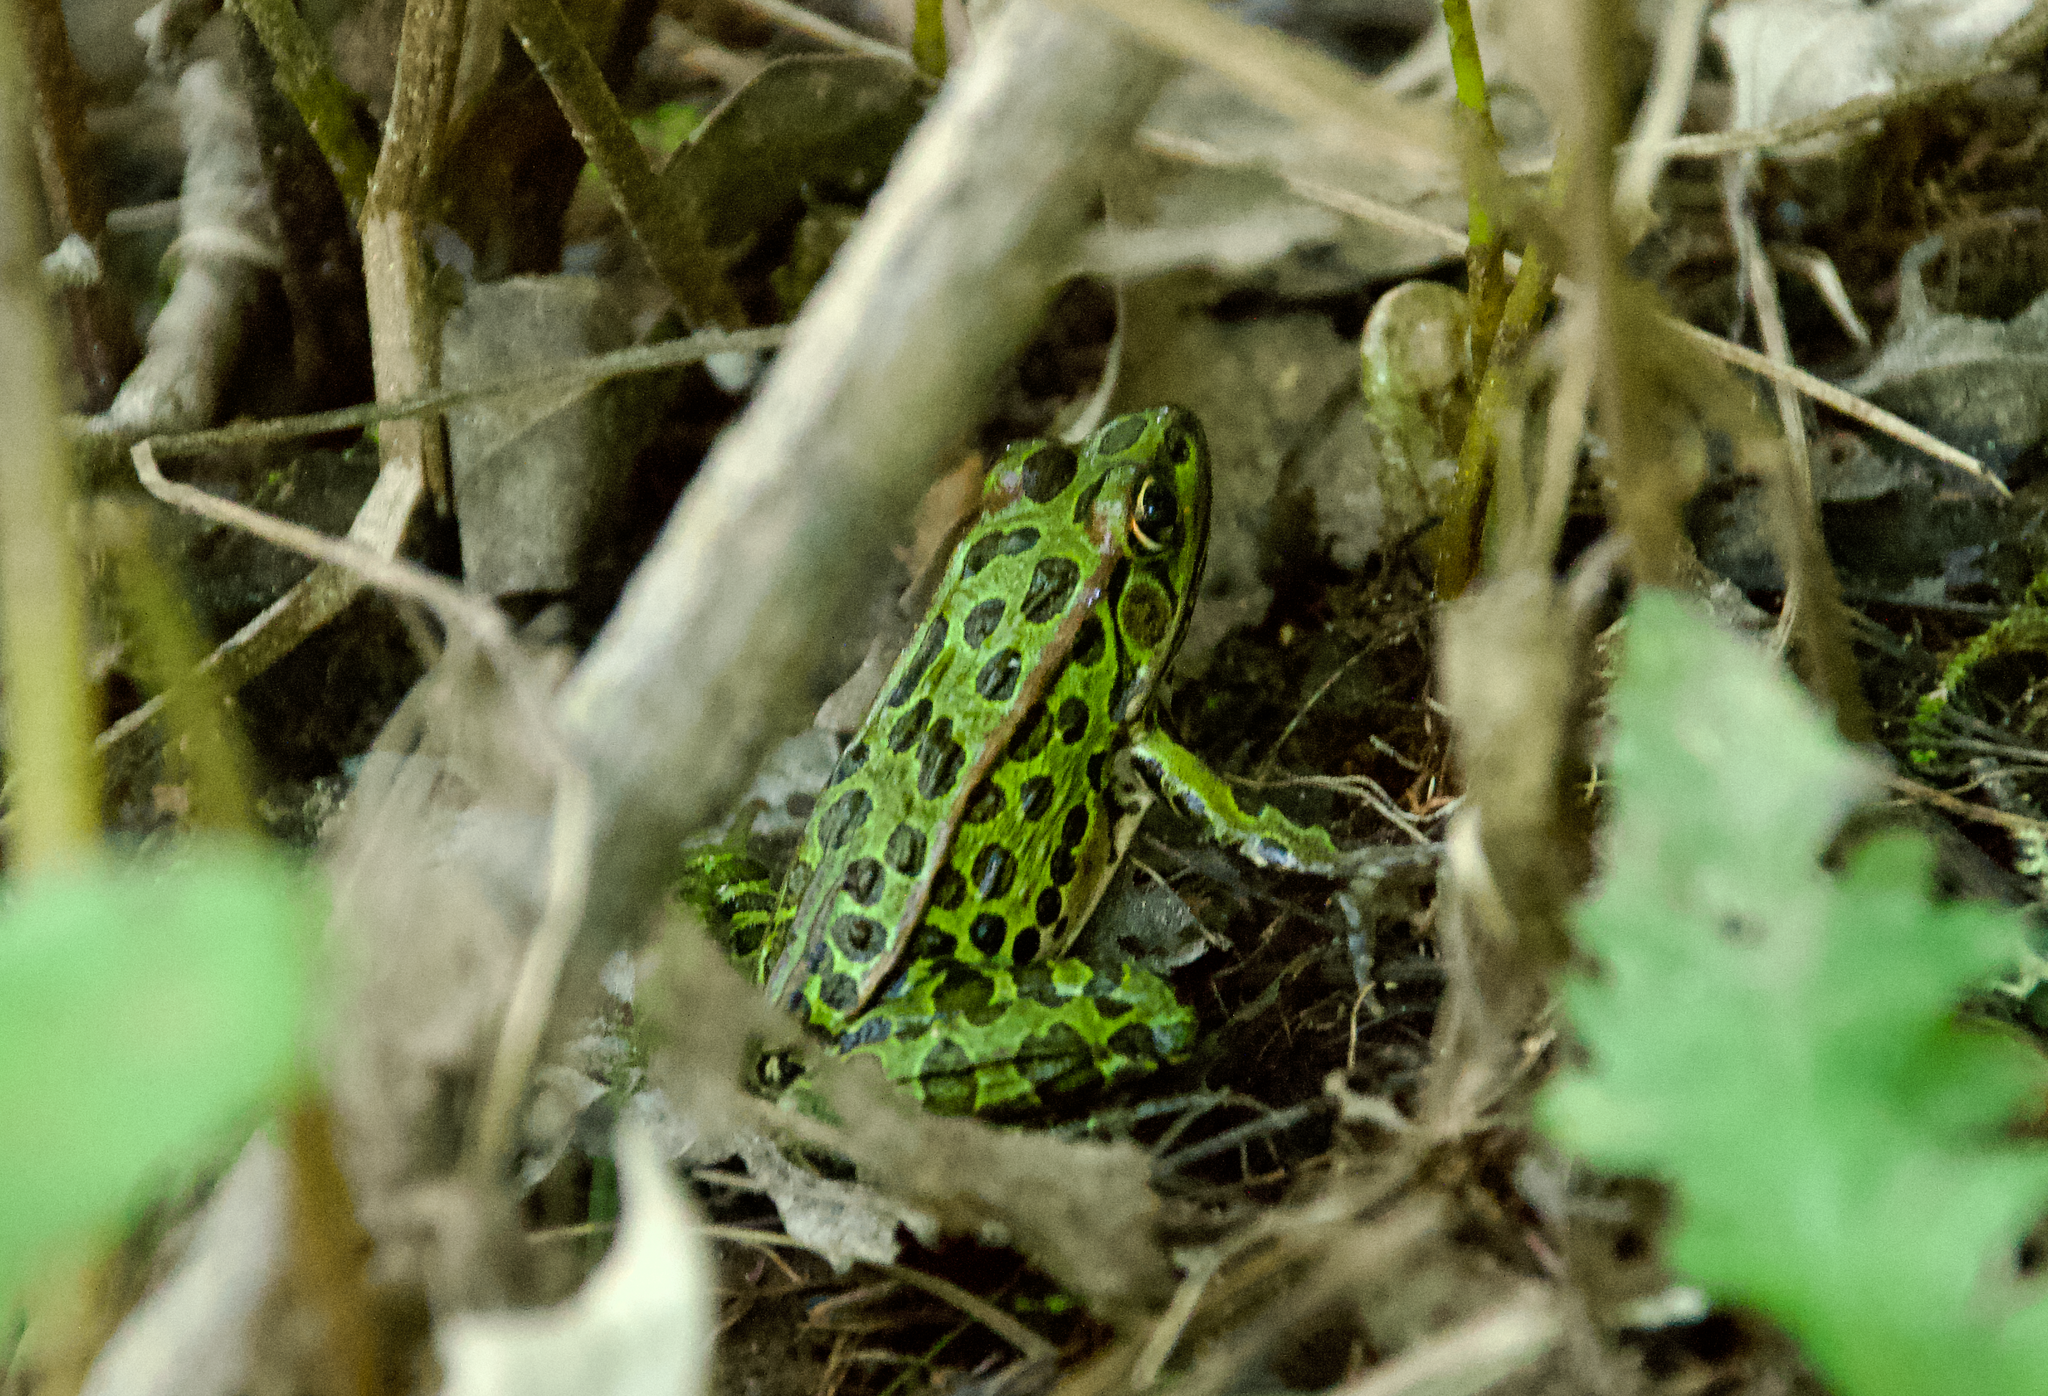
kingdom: Animalia
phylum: Chordata
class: Amphibia
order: Anura
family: Ranidae
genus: Lithobates
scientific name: Lithobates pipiens
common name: Northern leopard frog
